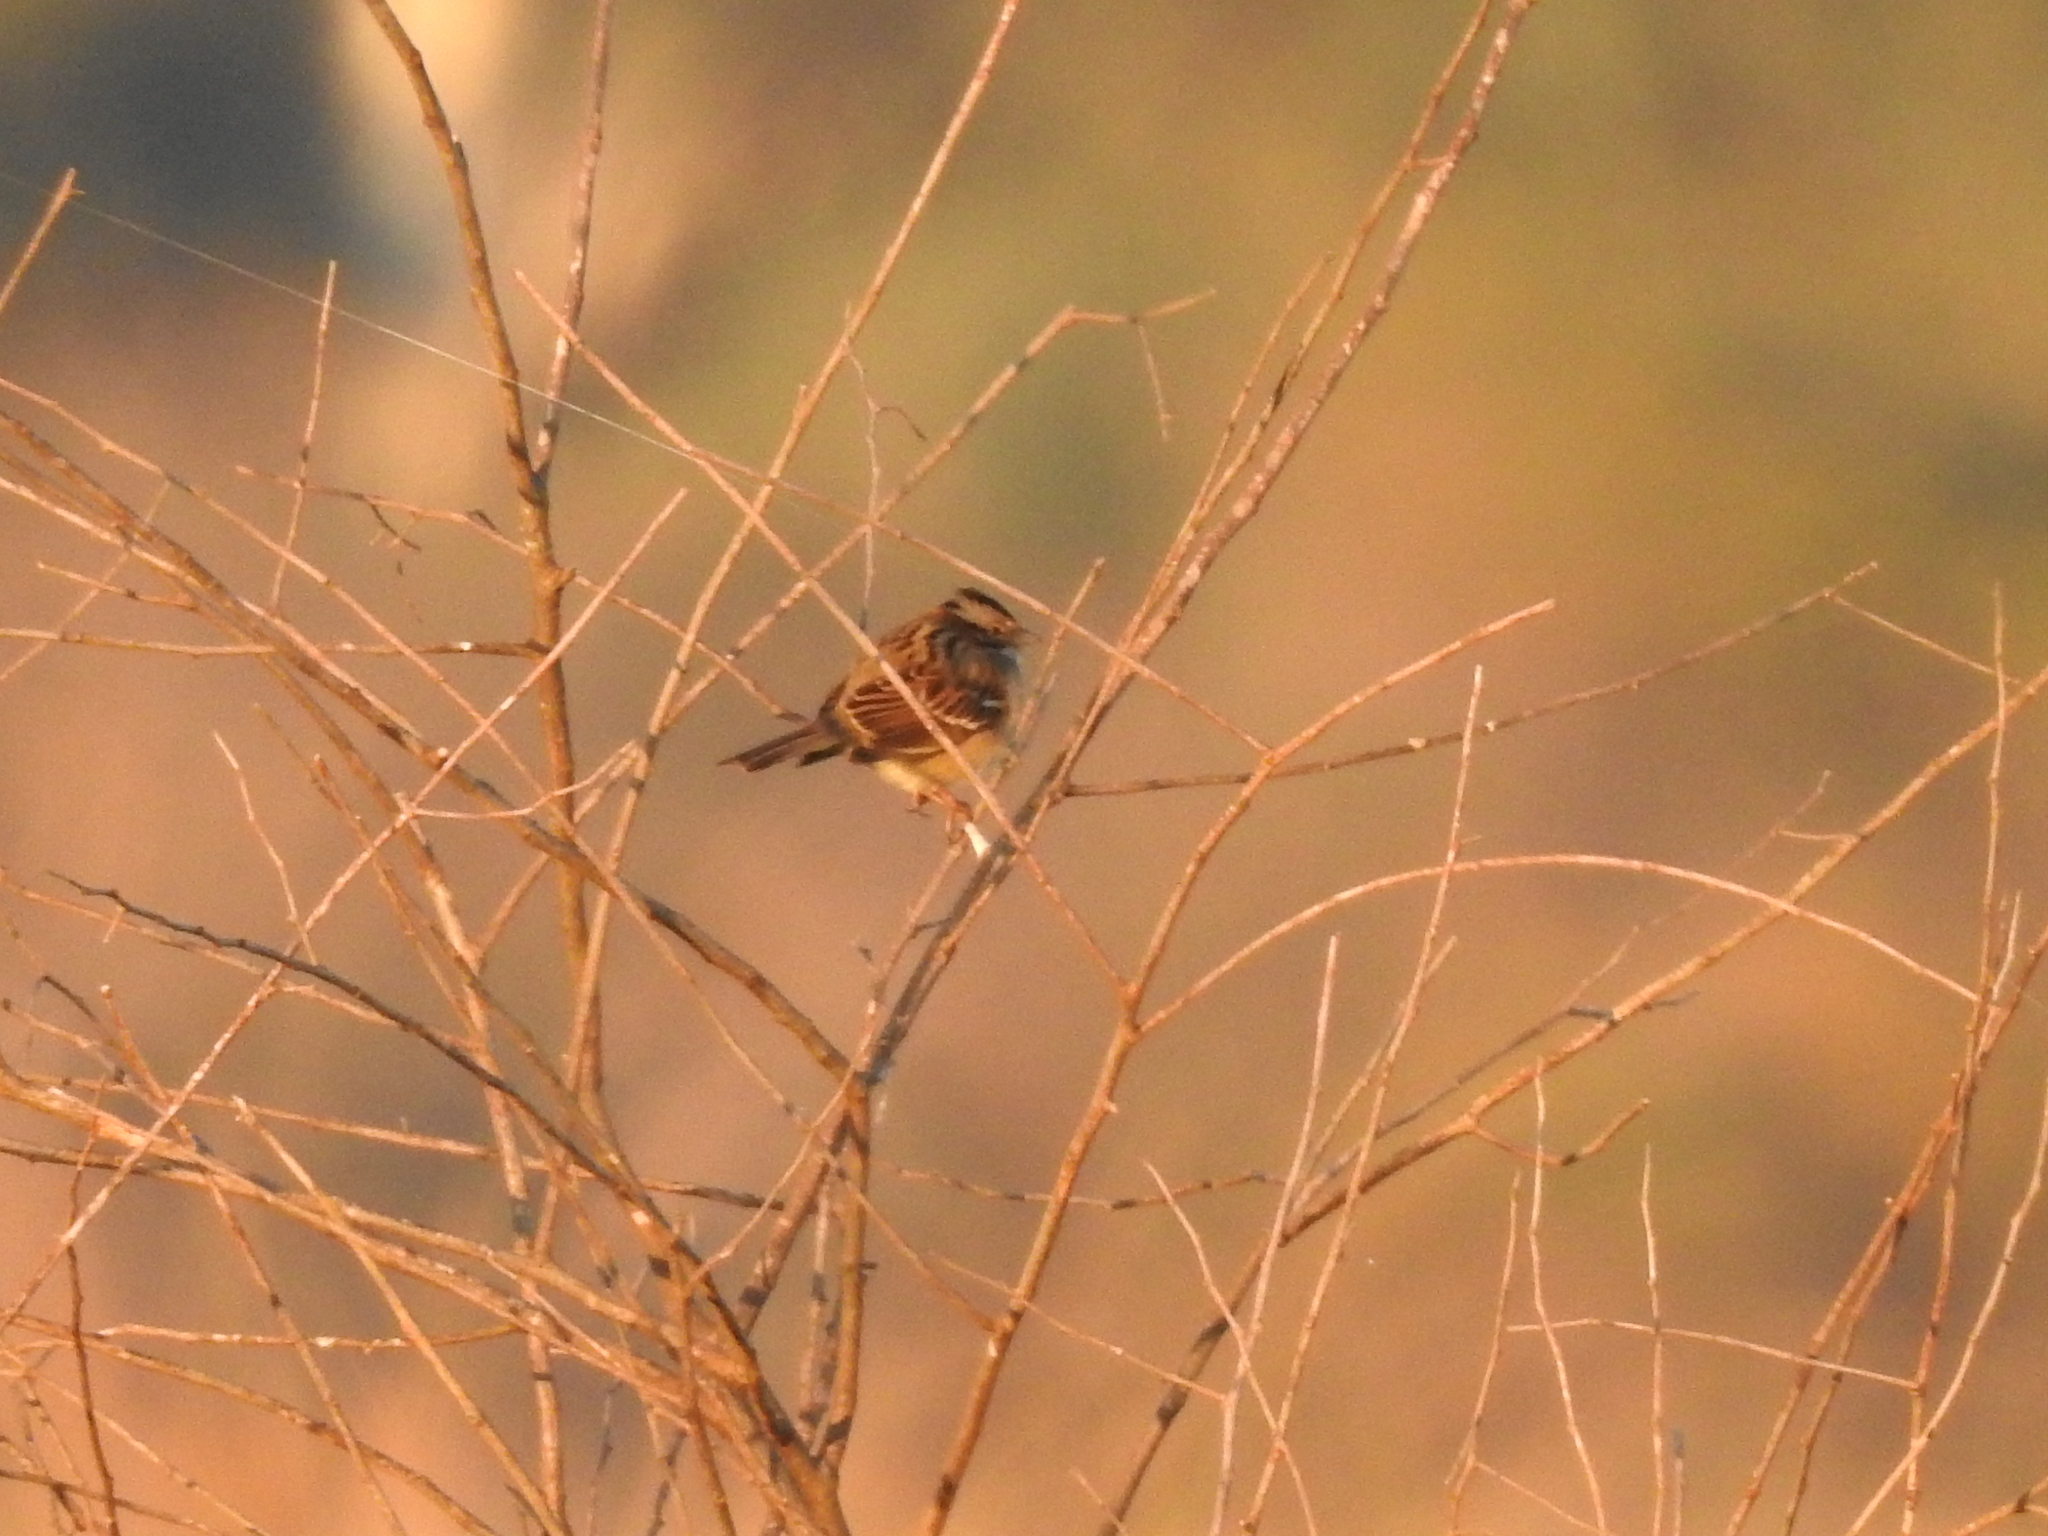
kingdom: Animalia
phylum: Chordata
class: Aves
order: Passeriformes
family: Passerellidae
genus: Zonotrichia
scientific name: Zonotrichia capensis
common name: Rufous-collared sparrow
